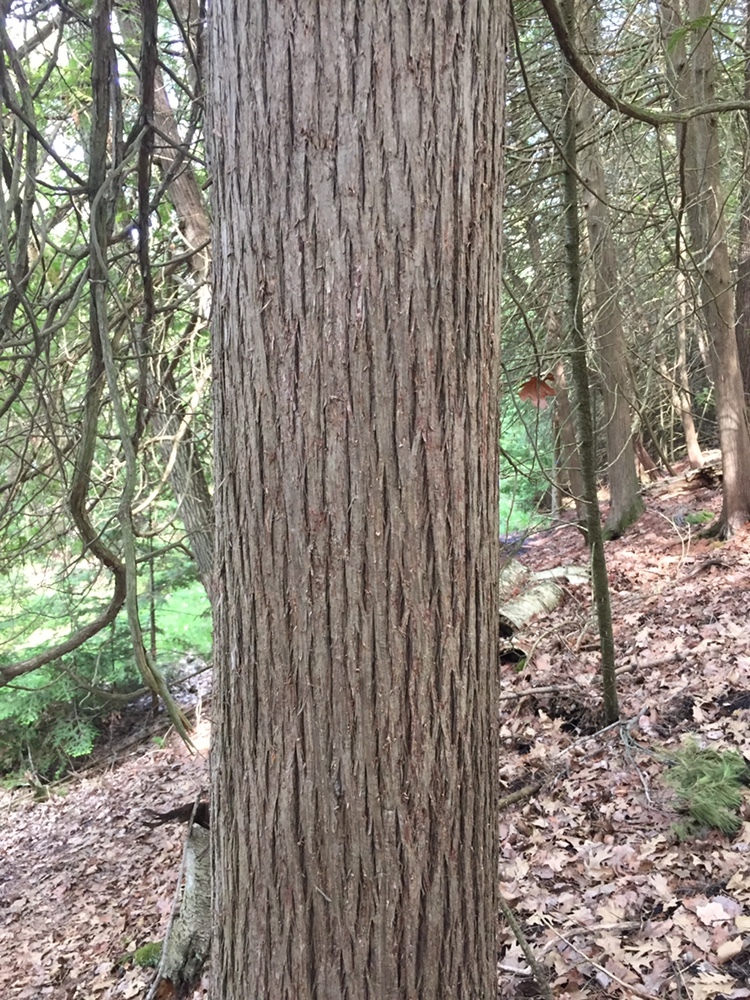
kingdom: Plantae
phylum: Tracheophyta
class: Pinopsida
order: Pinales
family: Cupressaceae
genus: Thuja
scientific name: Thuja occidentalis
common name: Northern white-cedar
